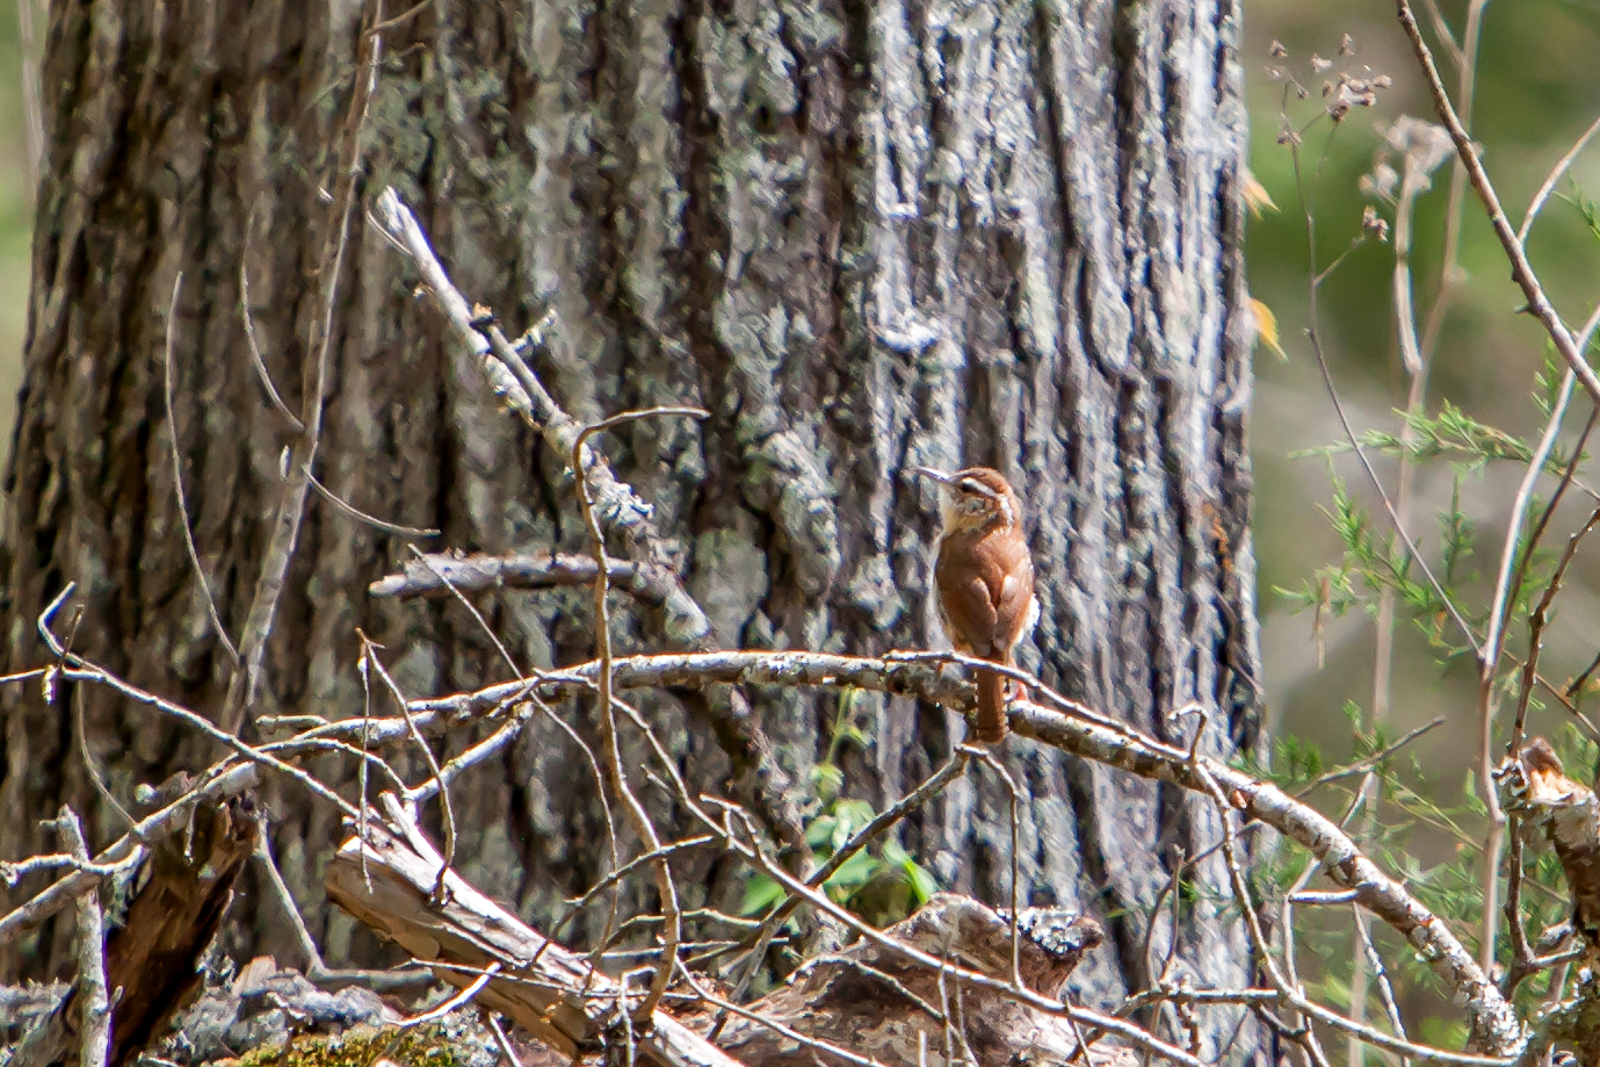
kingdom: Animalia
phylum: Chordata
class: Aves
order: Passeriformes
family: Troglodytidae
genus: Thryothorus
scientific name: Thryothorus ludovicianus
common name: Carolina wren
